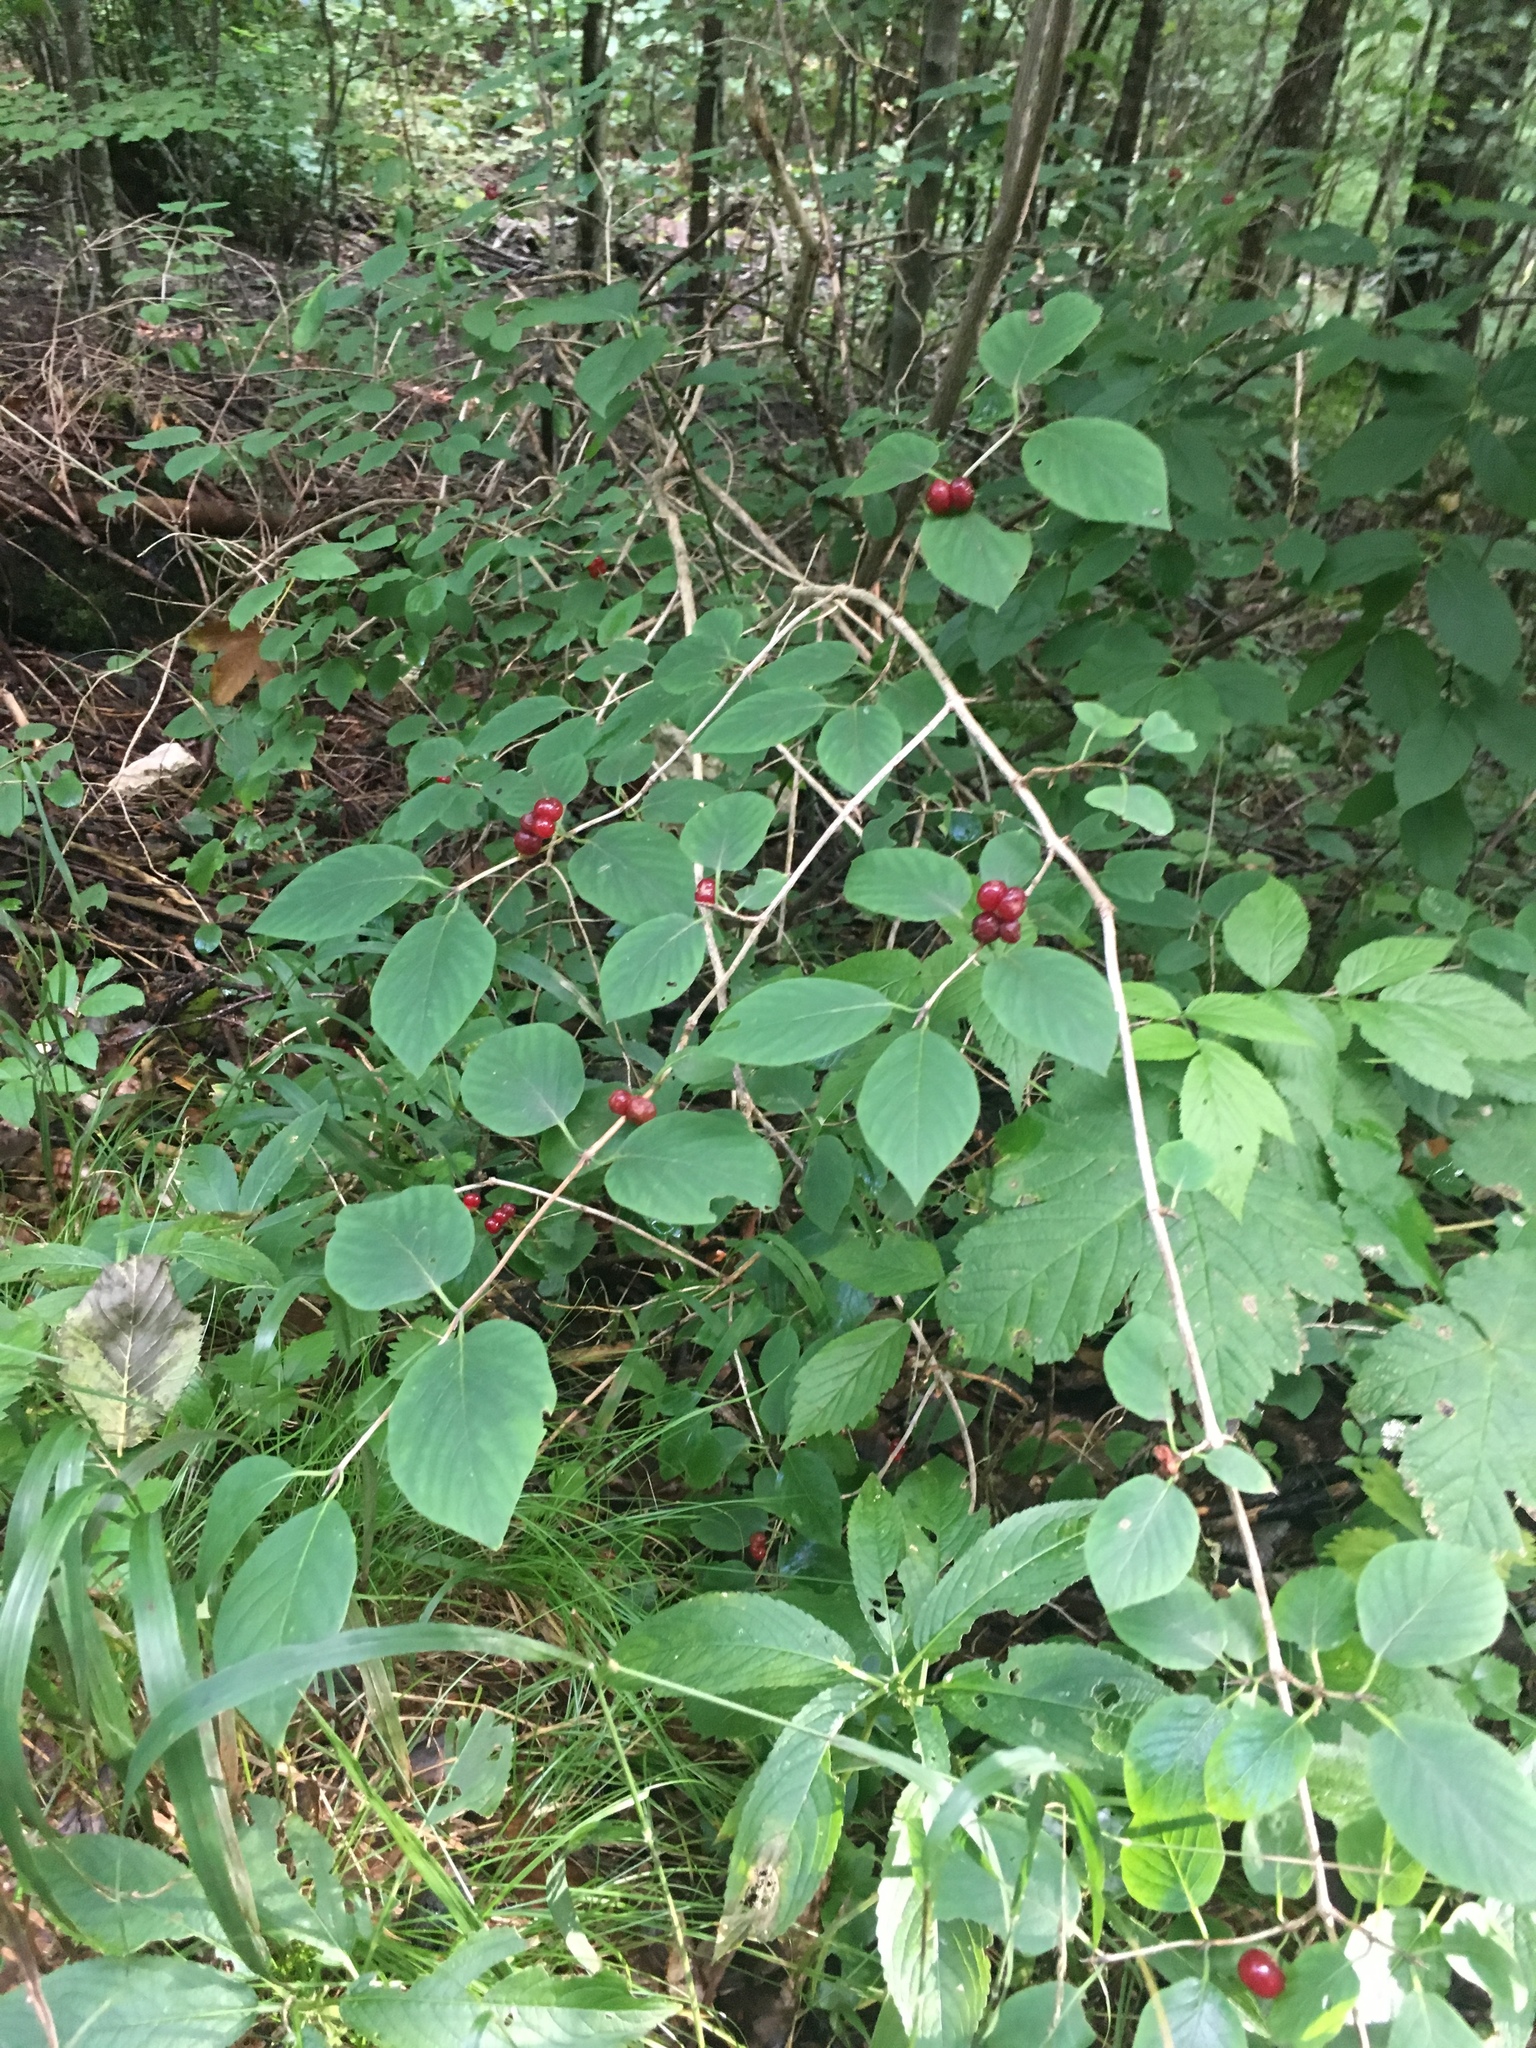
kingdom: Plantae
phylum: Tracheophyta
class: Magnoliopsida
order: Dipsacales
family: Caprifoliaceae
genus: Lonicera
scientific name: Lonicera xylosteum
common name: Fly honeysuckle
